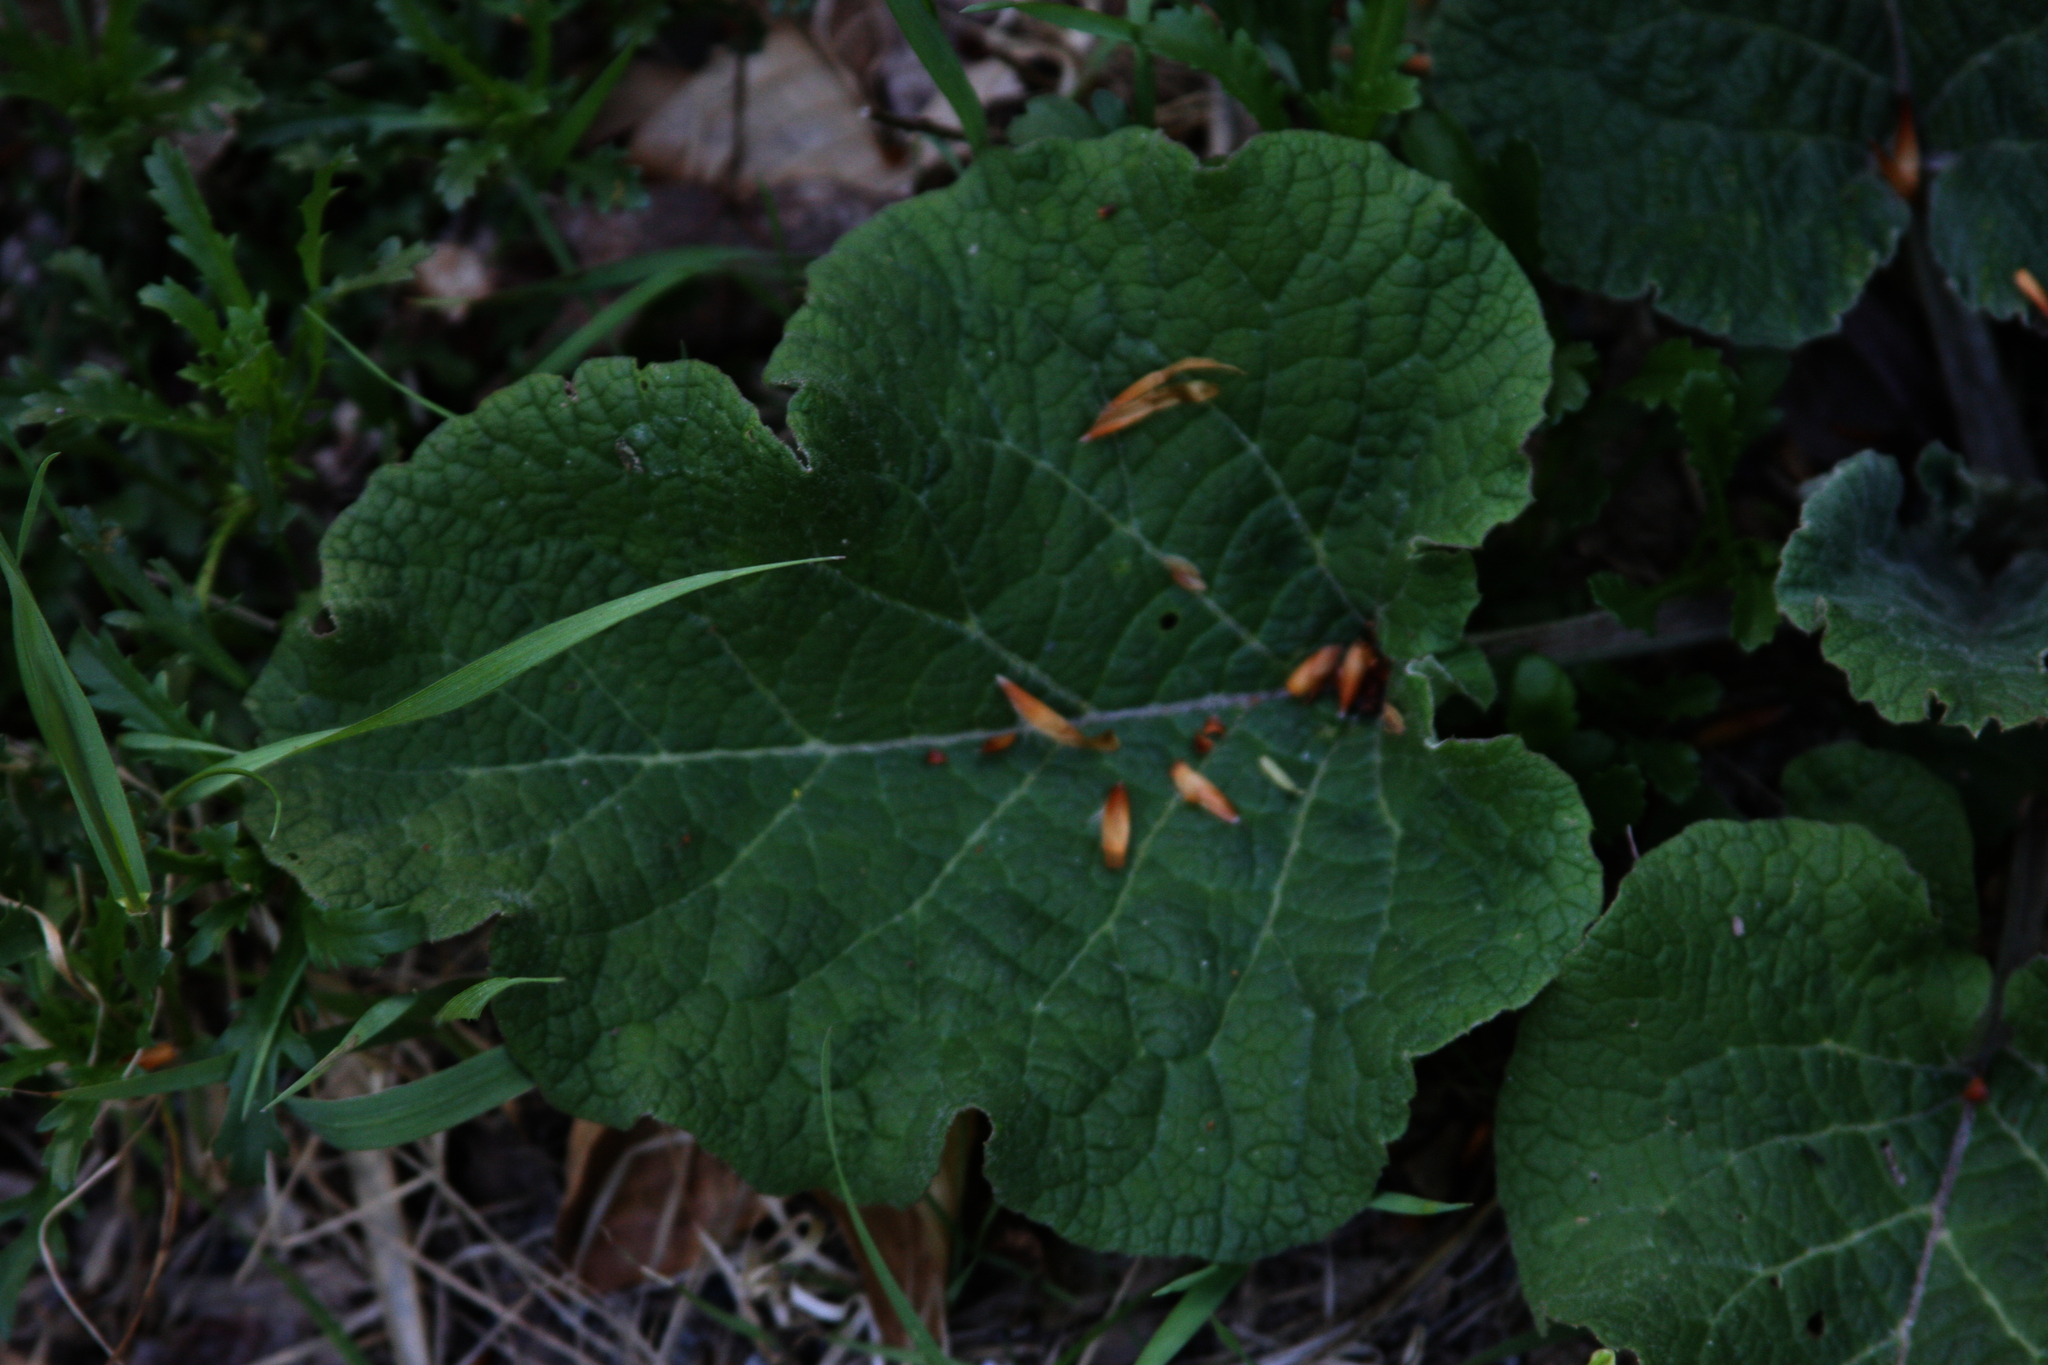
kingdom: Plantae
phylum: Tracheophyta
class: Magnoliopsida
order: Asterales
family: Asteraceae
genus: Arctium
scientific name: Arctium
